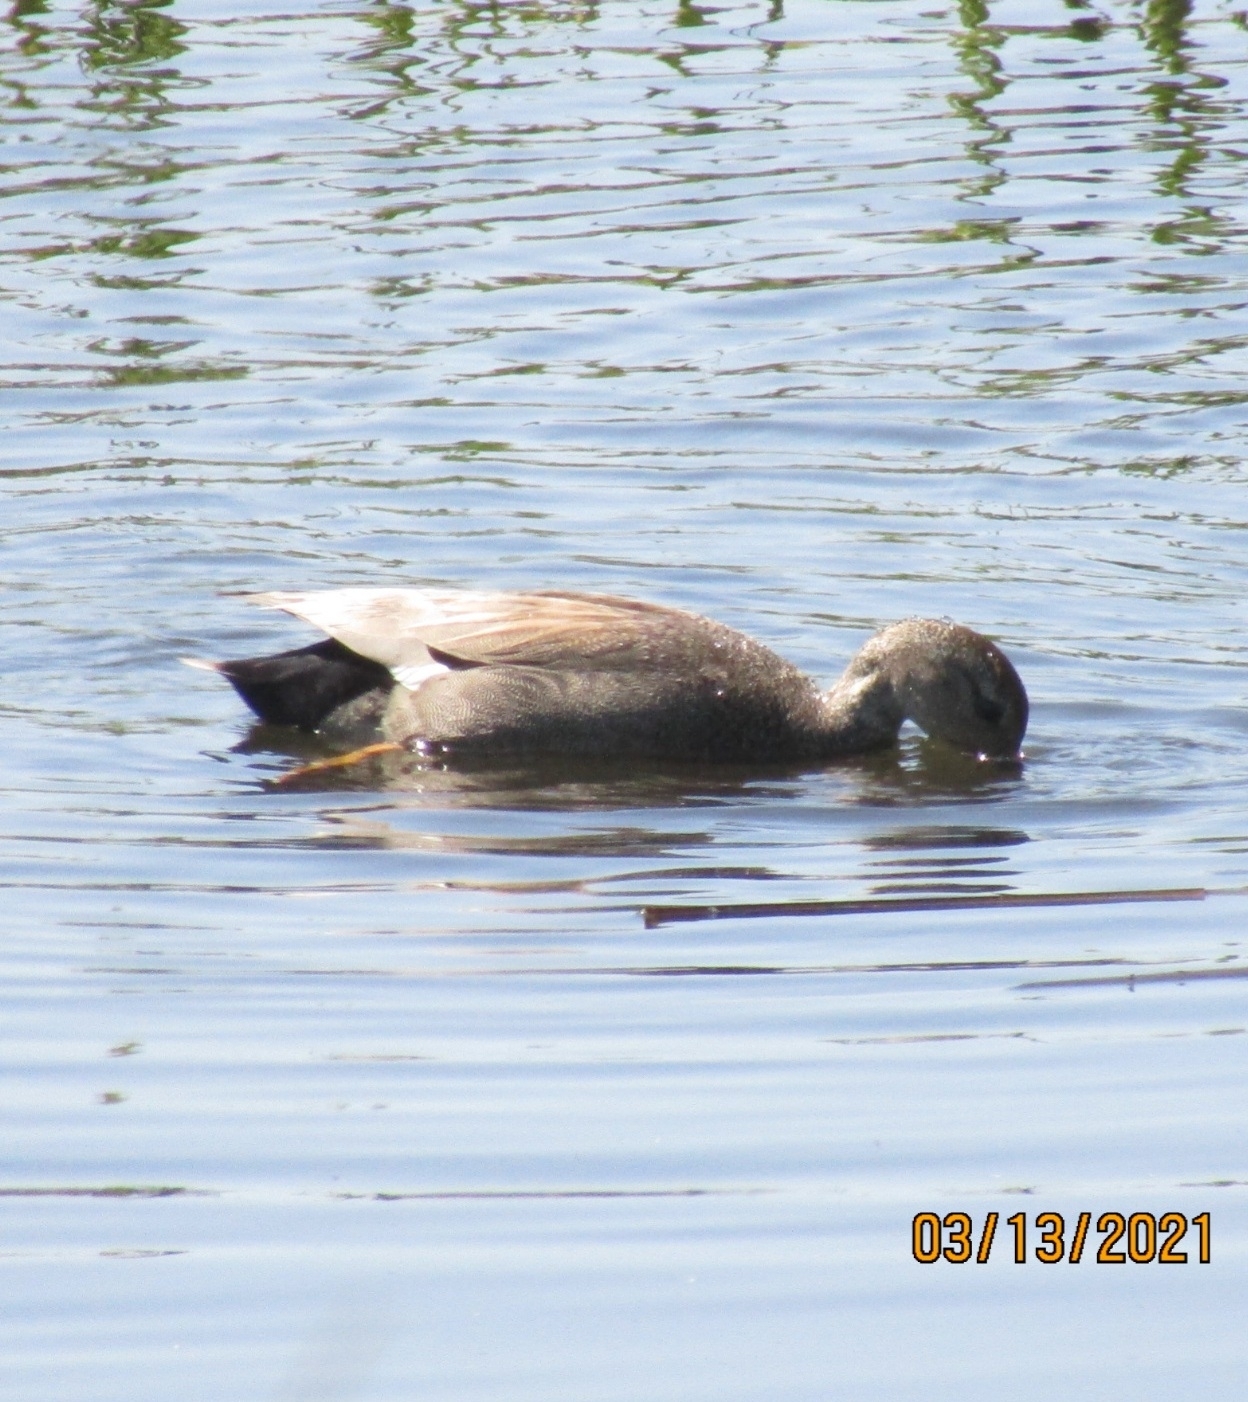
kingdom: Animalia
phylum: Chordata
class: Aves
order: Anseriformes
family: Anatidae
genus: Mareca
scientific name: Mareca strepera
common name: Gadwall
